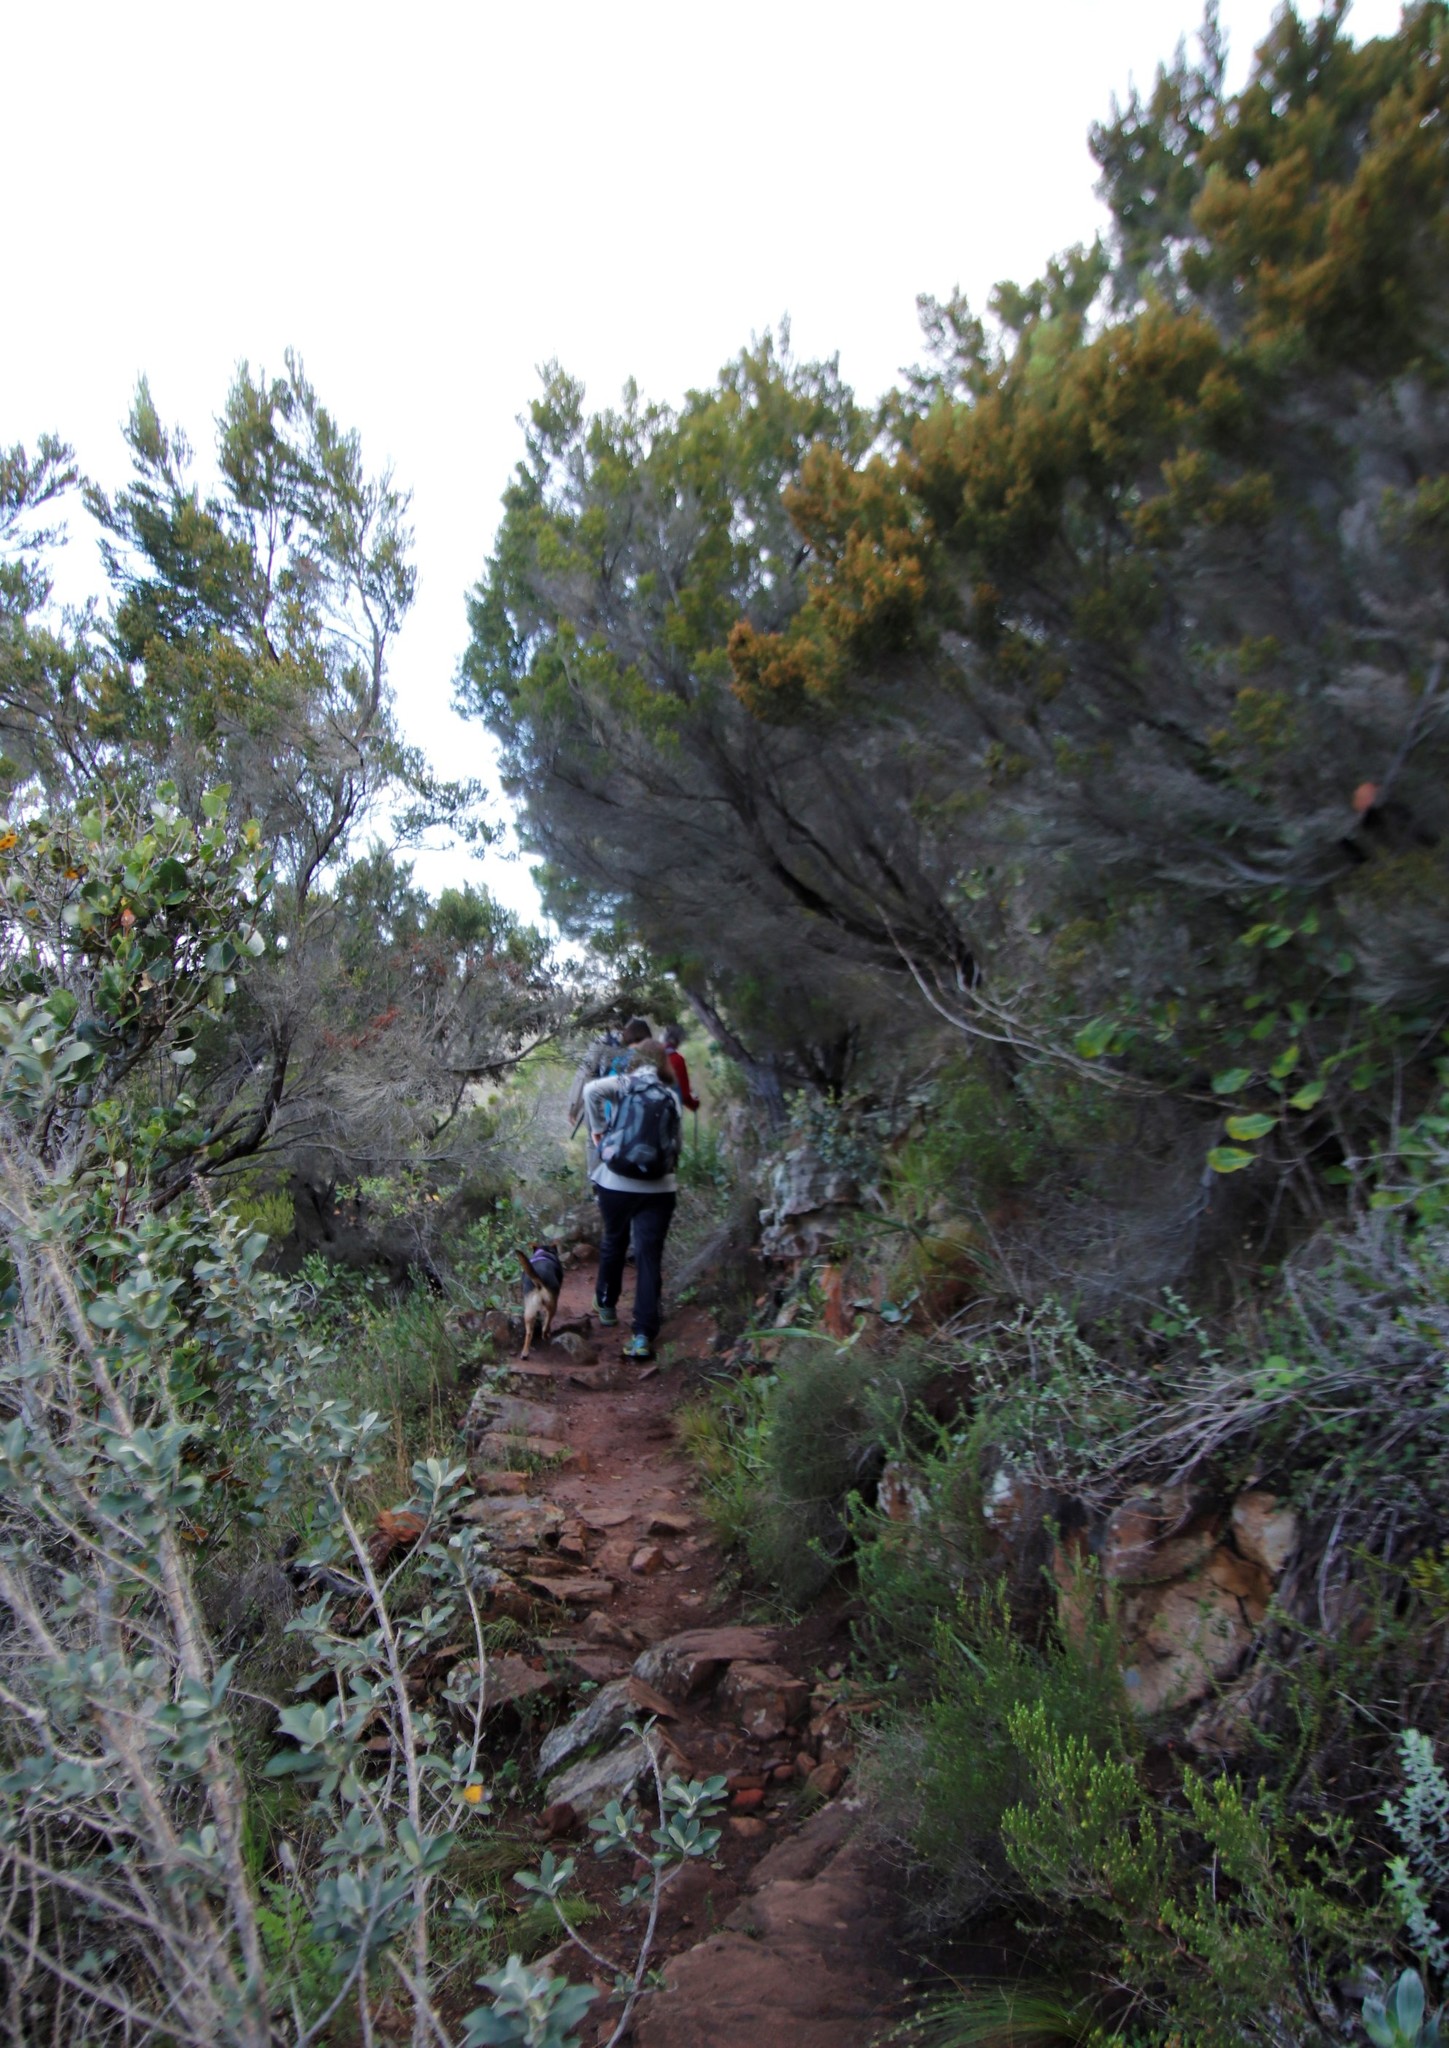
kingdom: Plantae
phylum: Tracheophyta
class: Magnoliopsida
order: Ericales
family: Ericaceae
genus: Erica
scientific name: Erica tristis
